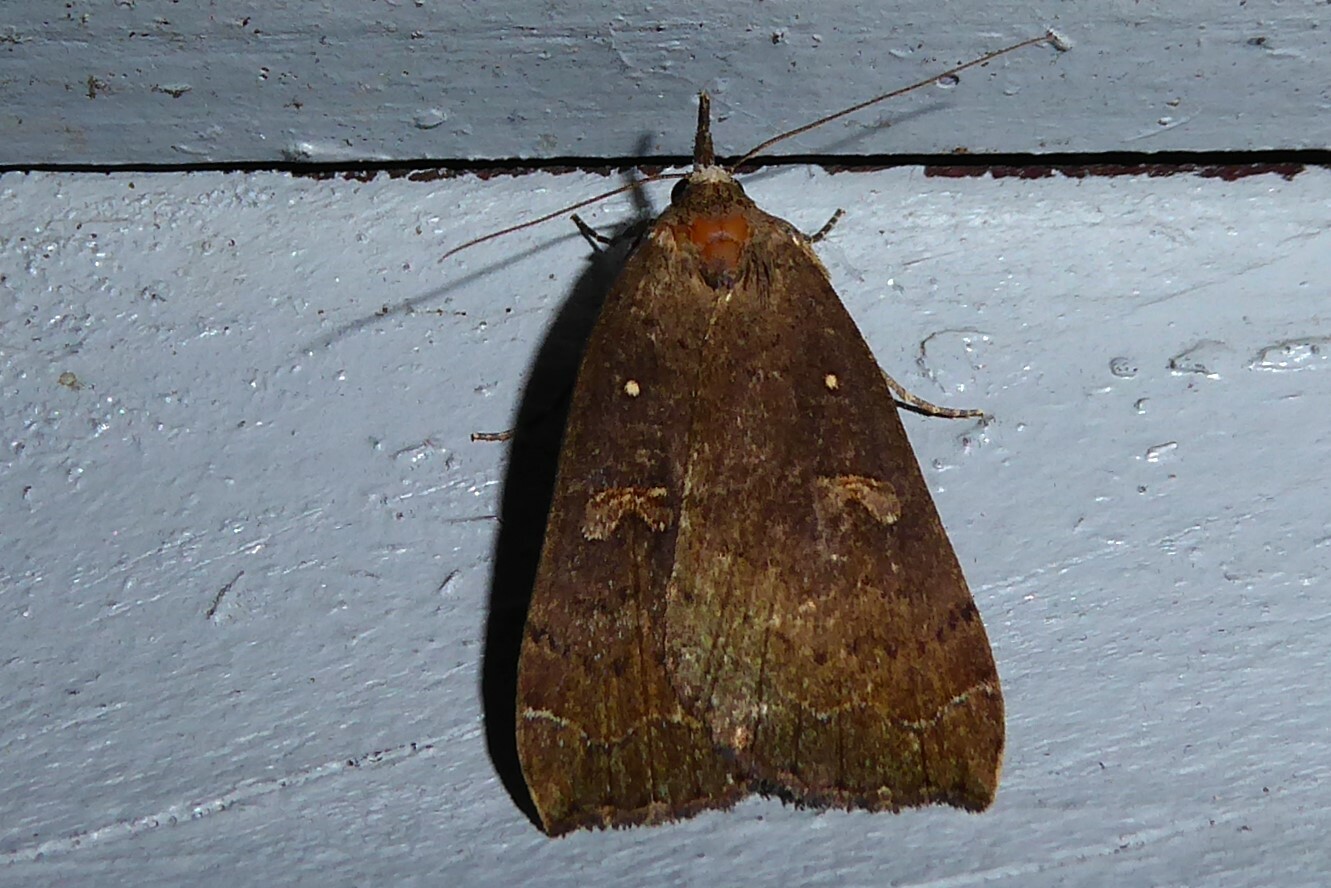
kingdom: Animalia
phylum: Arthropoda
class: Insecta
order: Lepidoptera
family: Erebidae
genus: Rhapsa
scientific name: Rhapsa scotosialis
